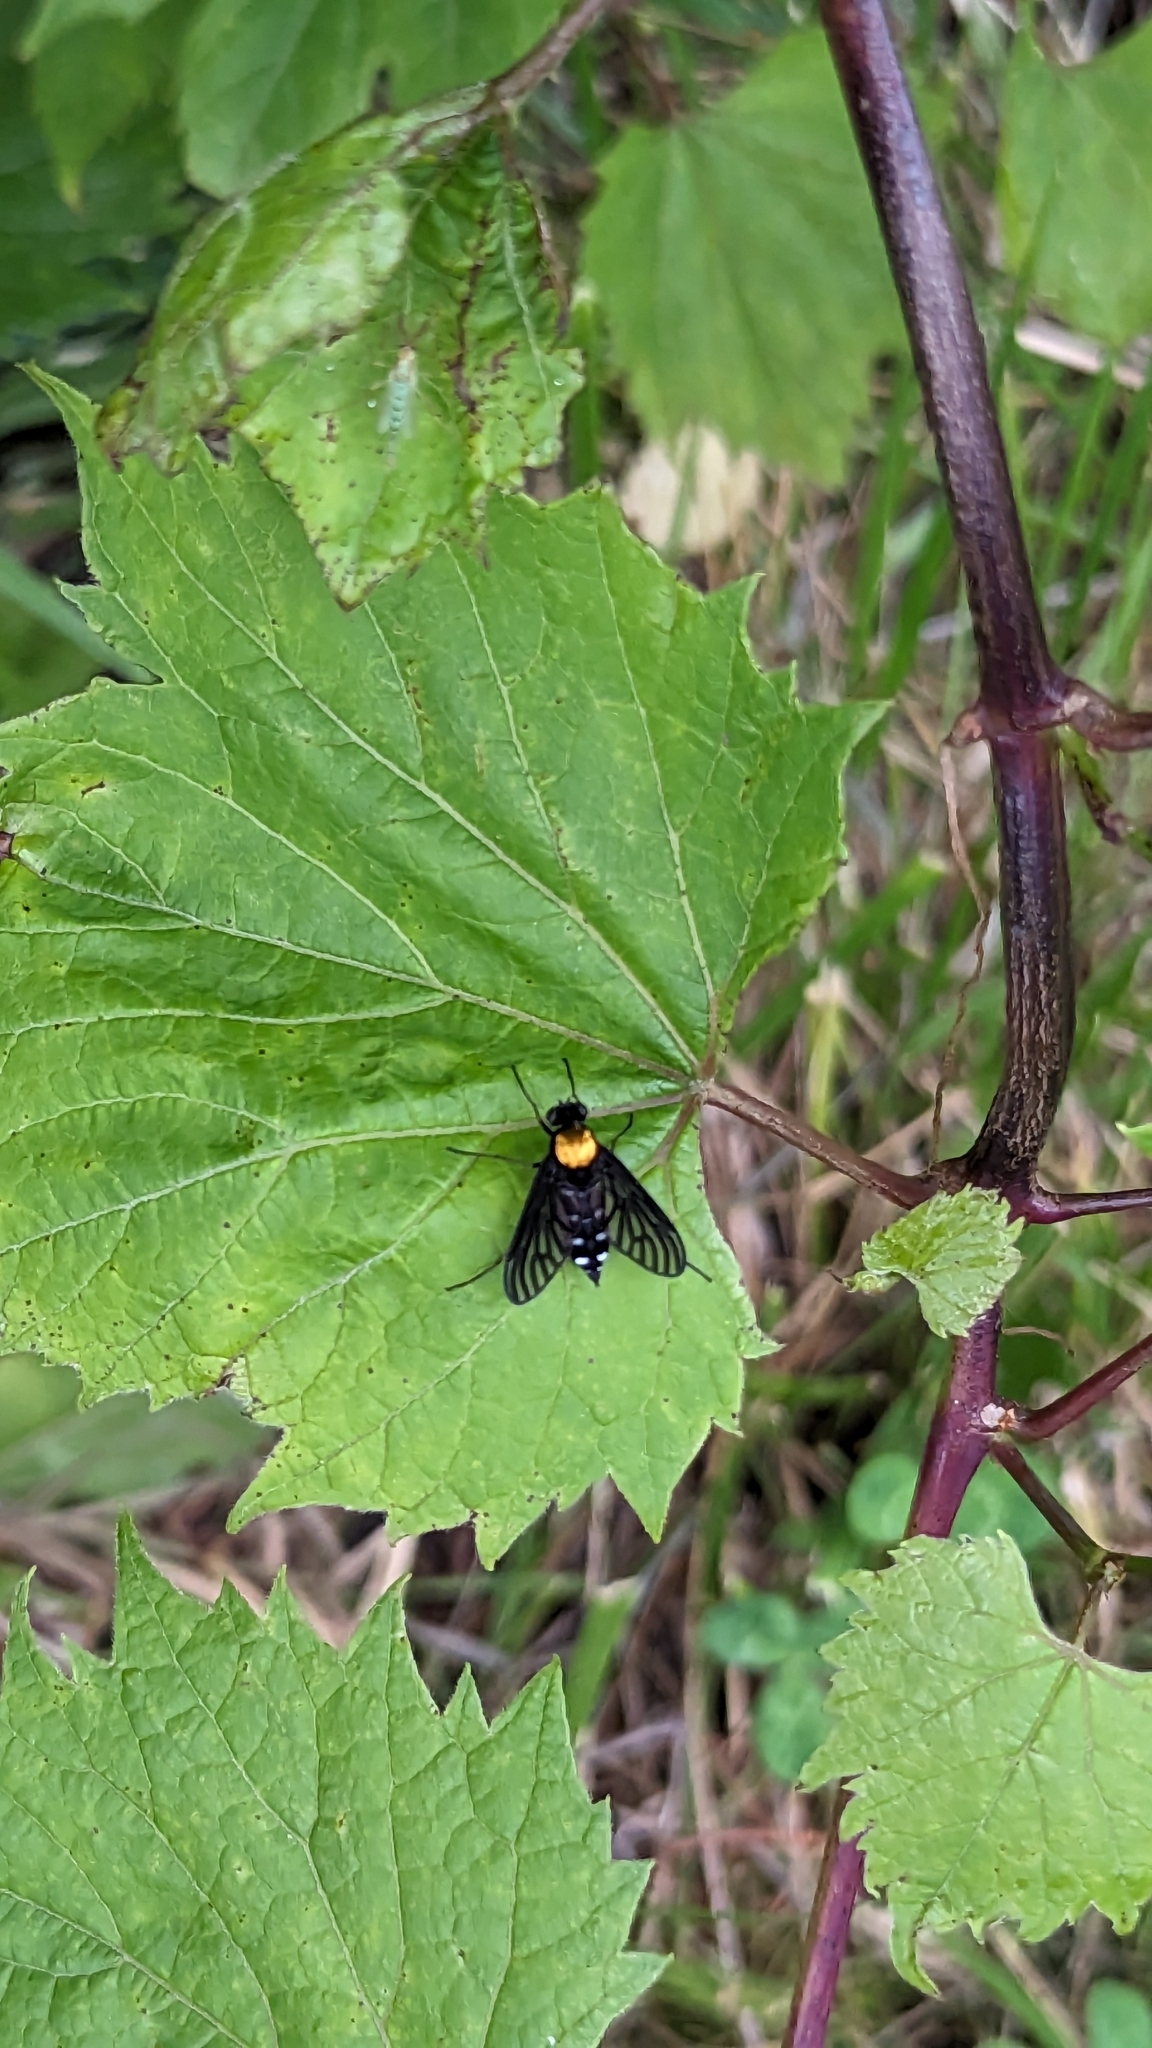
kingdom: Animalia
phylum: Arthropoda
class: Insecta
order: Diptera
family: Rhagionidae
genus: Chrysopilus
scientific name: Chrysopilus thoracicus
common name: Golden-backed snipe fly
